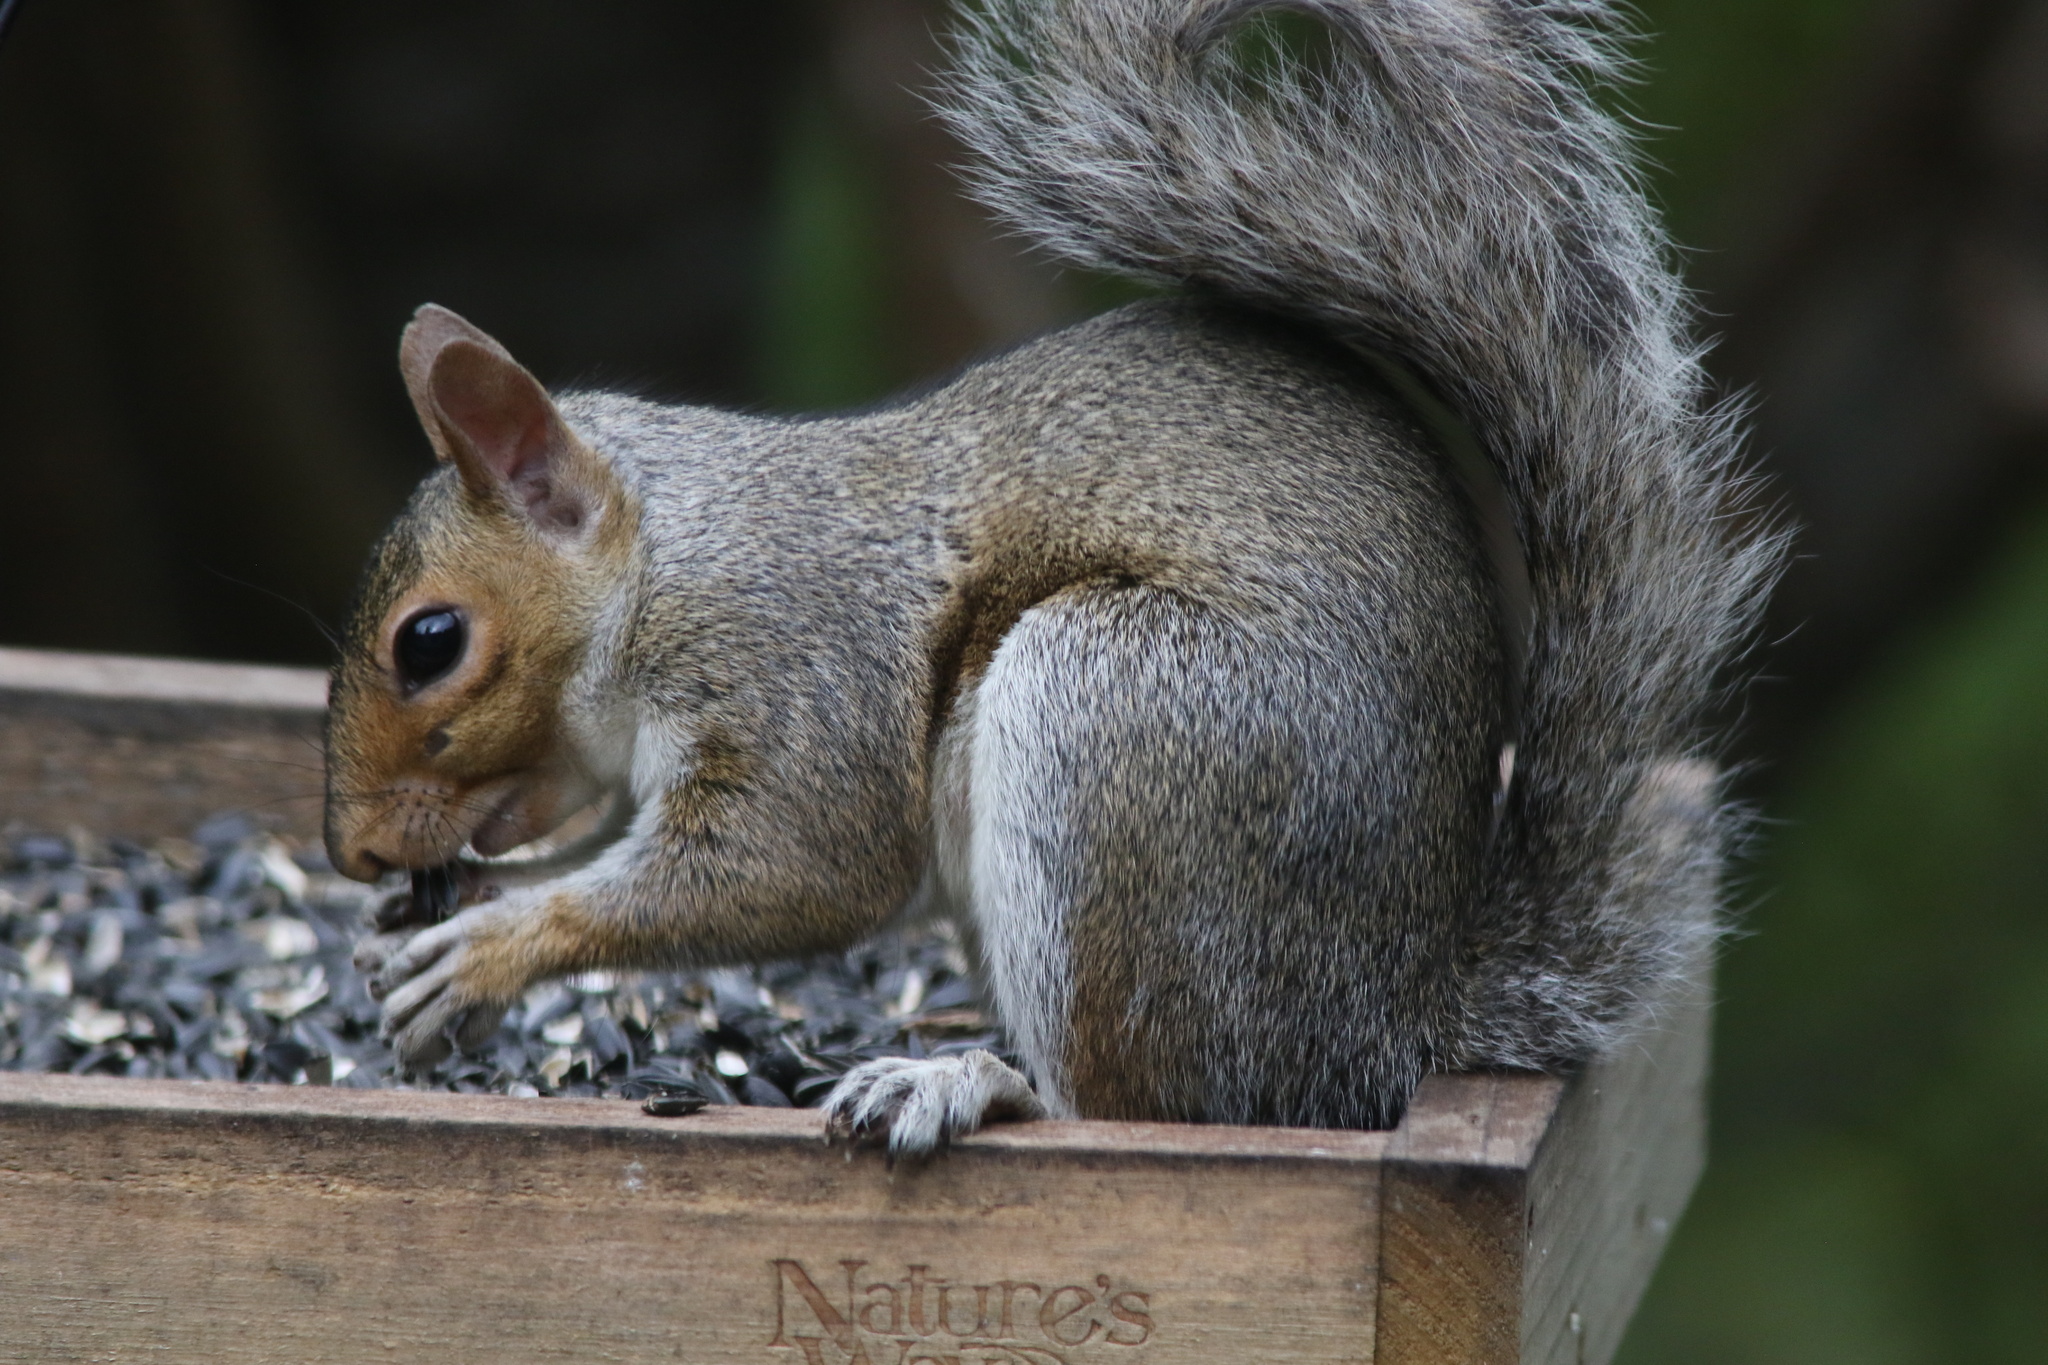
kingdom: Animalia
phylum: Chordata
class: Mammalia
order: Rodentia
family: Sciuridae
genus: Sciurus
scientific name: Sciurus carolinensis
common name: Eastern gray squirrel
